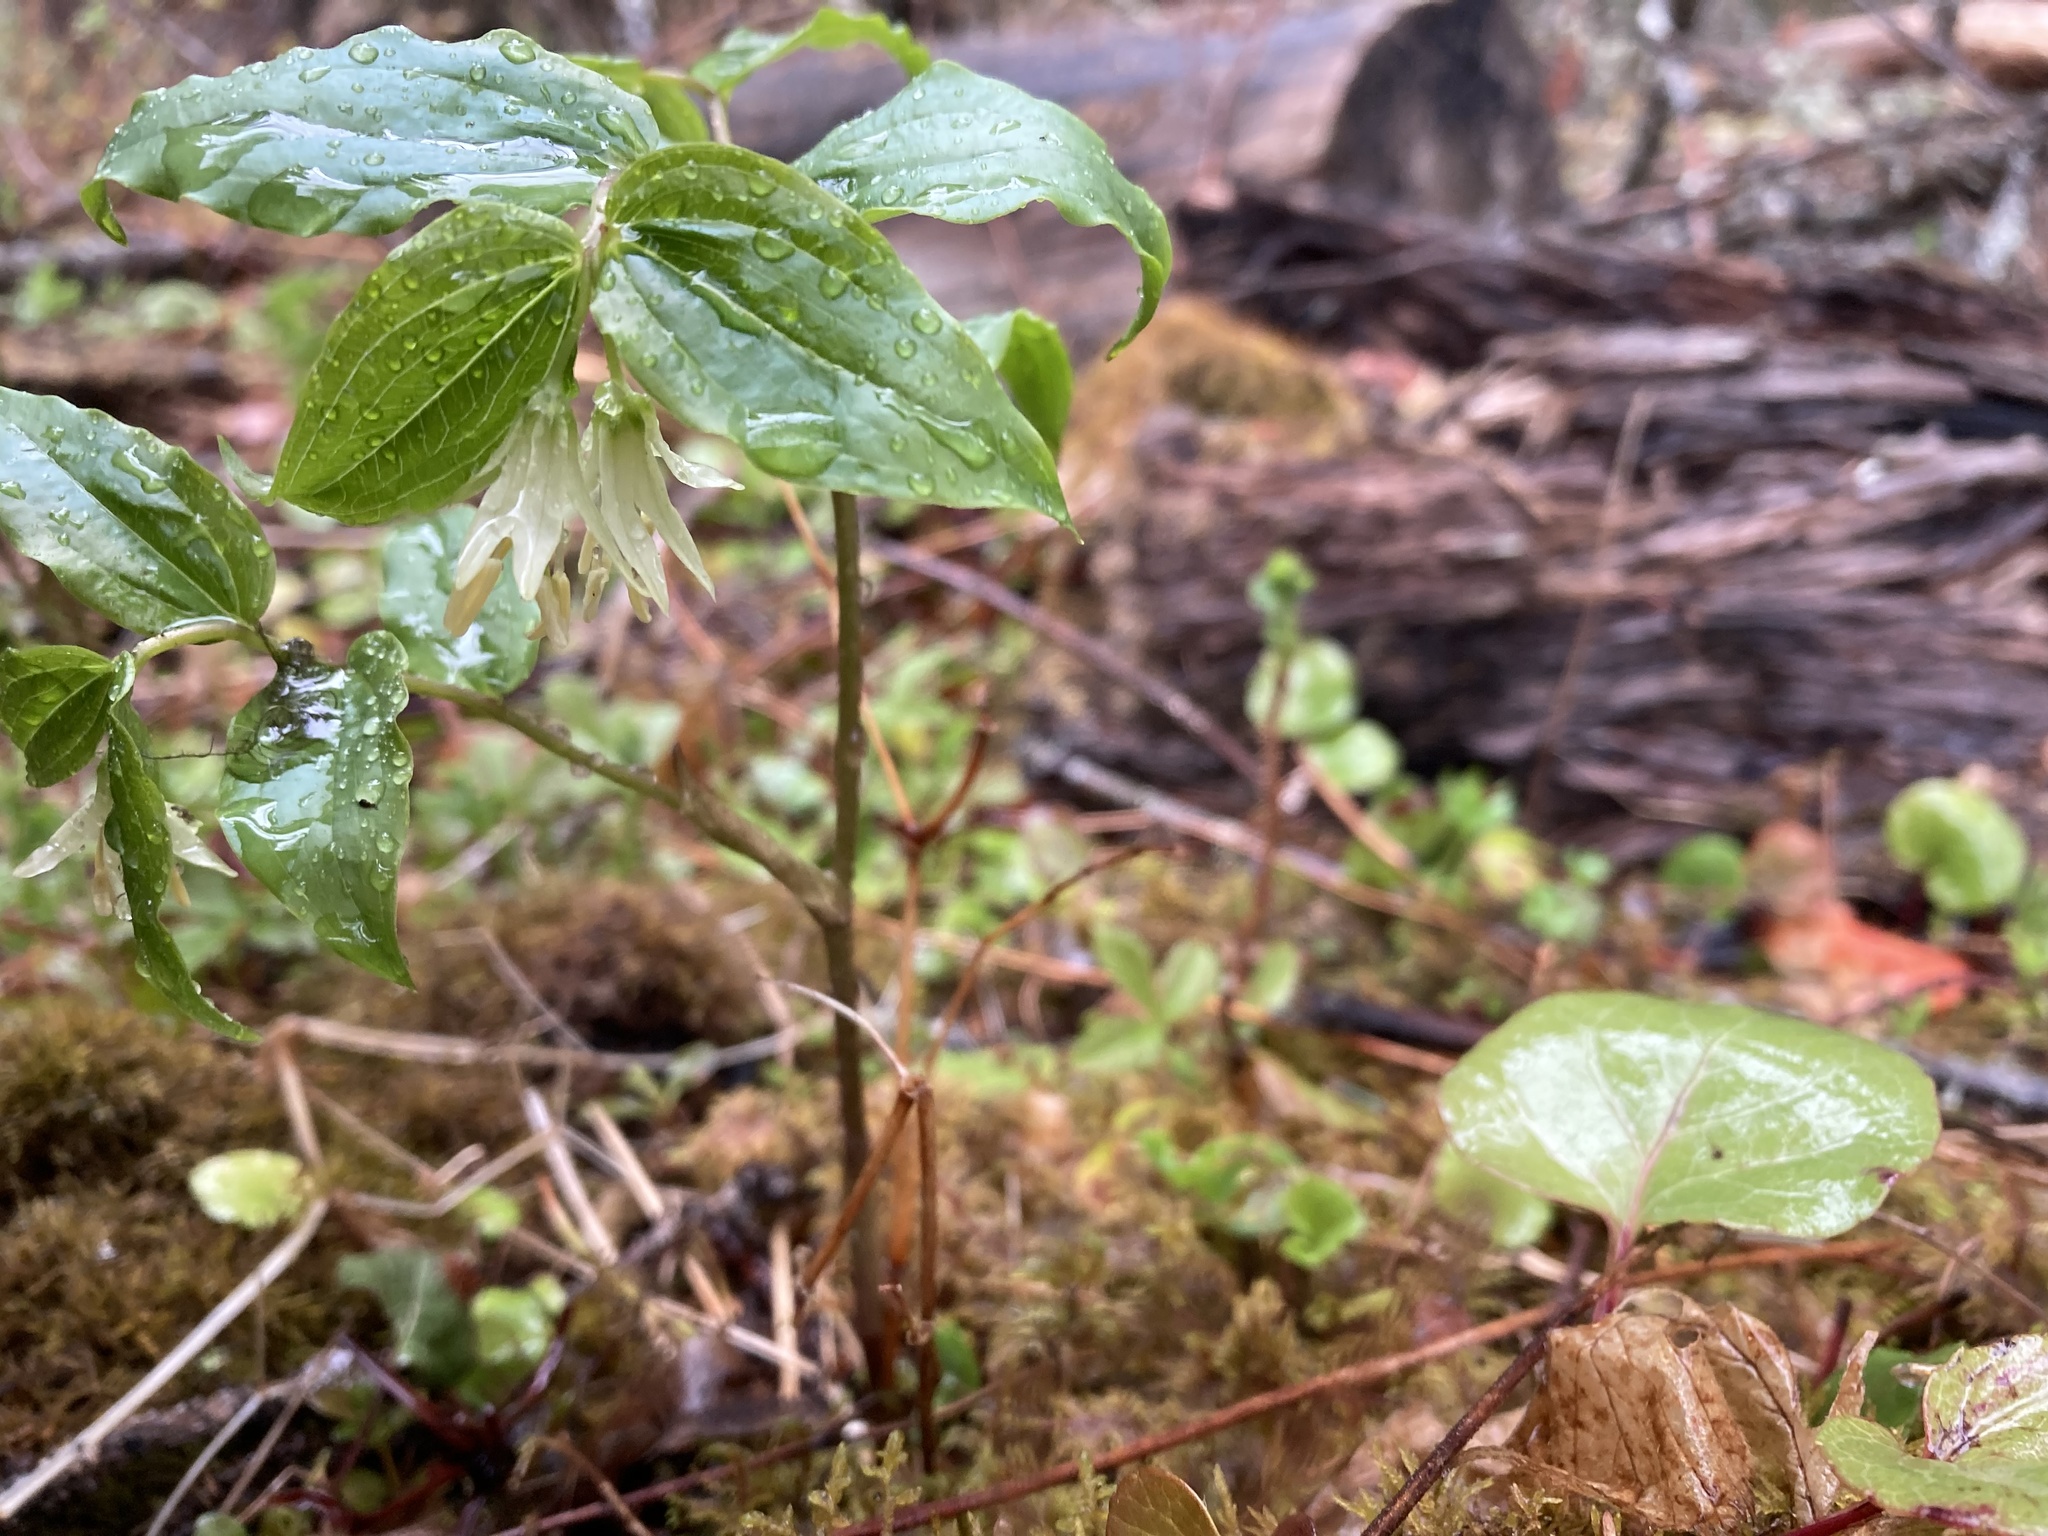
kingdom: Plantae
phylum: Tracheophyta
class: Liliopsida
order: Liliales
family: Liliaceae
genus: Prosartes
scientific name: Prosartes trachycarpa
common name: Rough-fruit fairy-bells
